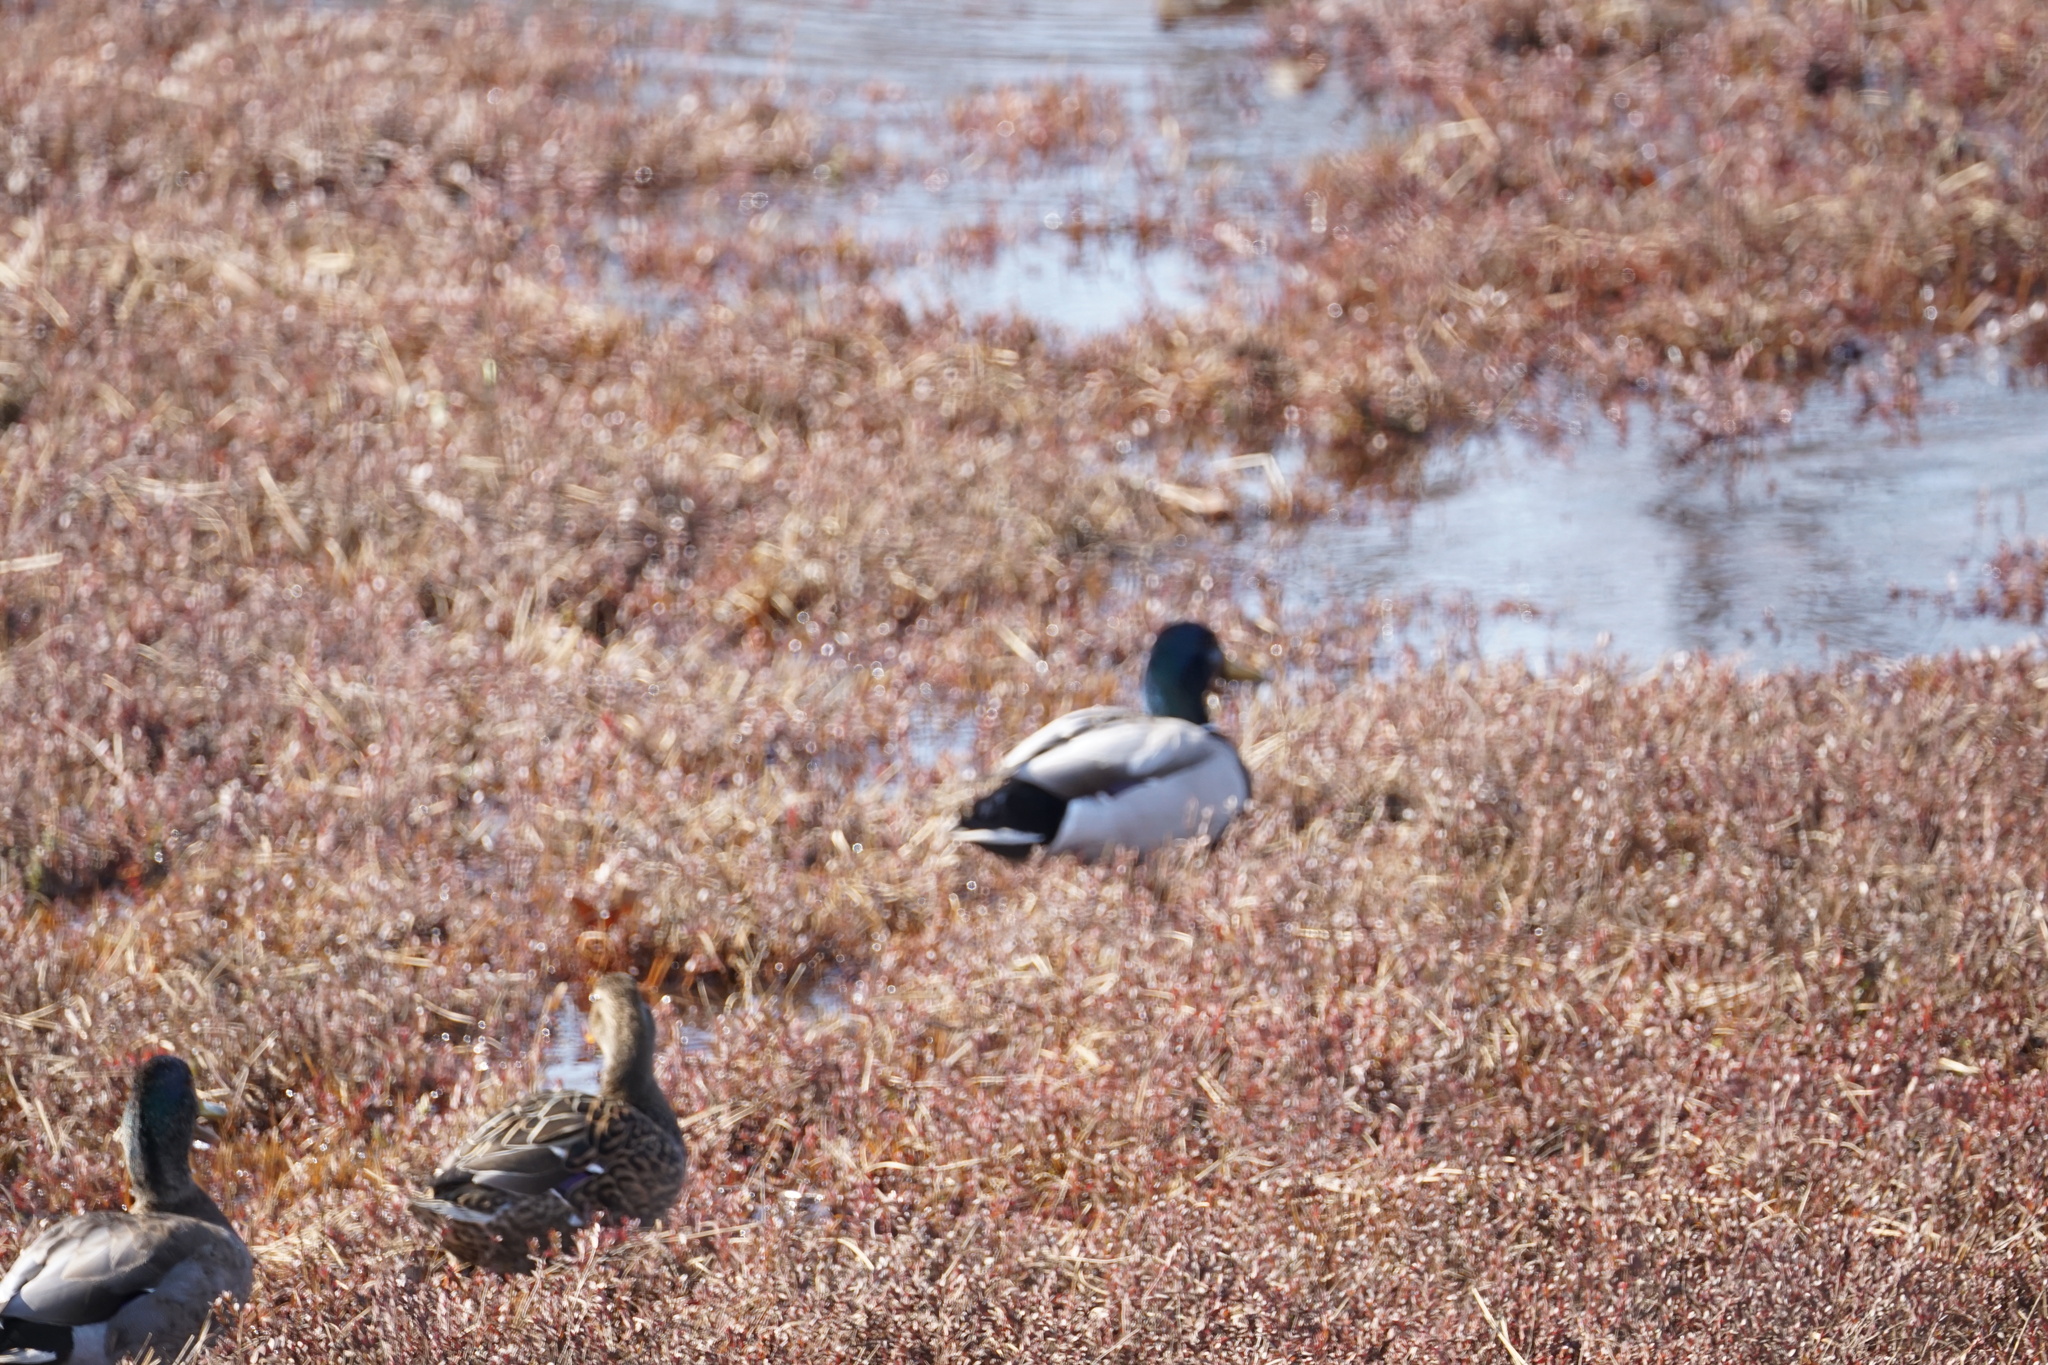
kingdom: Animalia
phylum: Chordata
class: Aves
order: Anseriformes
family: Anatidae
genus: Anas
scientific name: Anas platyrhynchos
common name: Mallard
